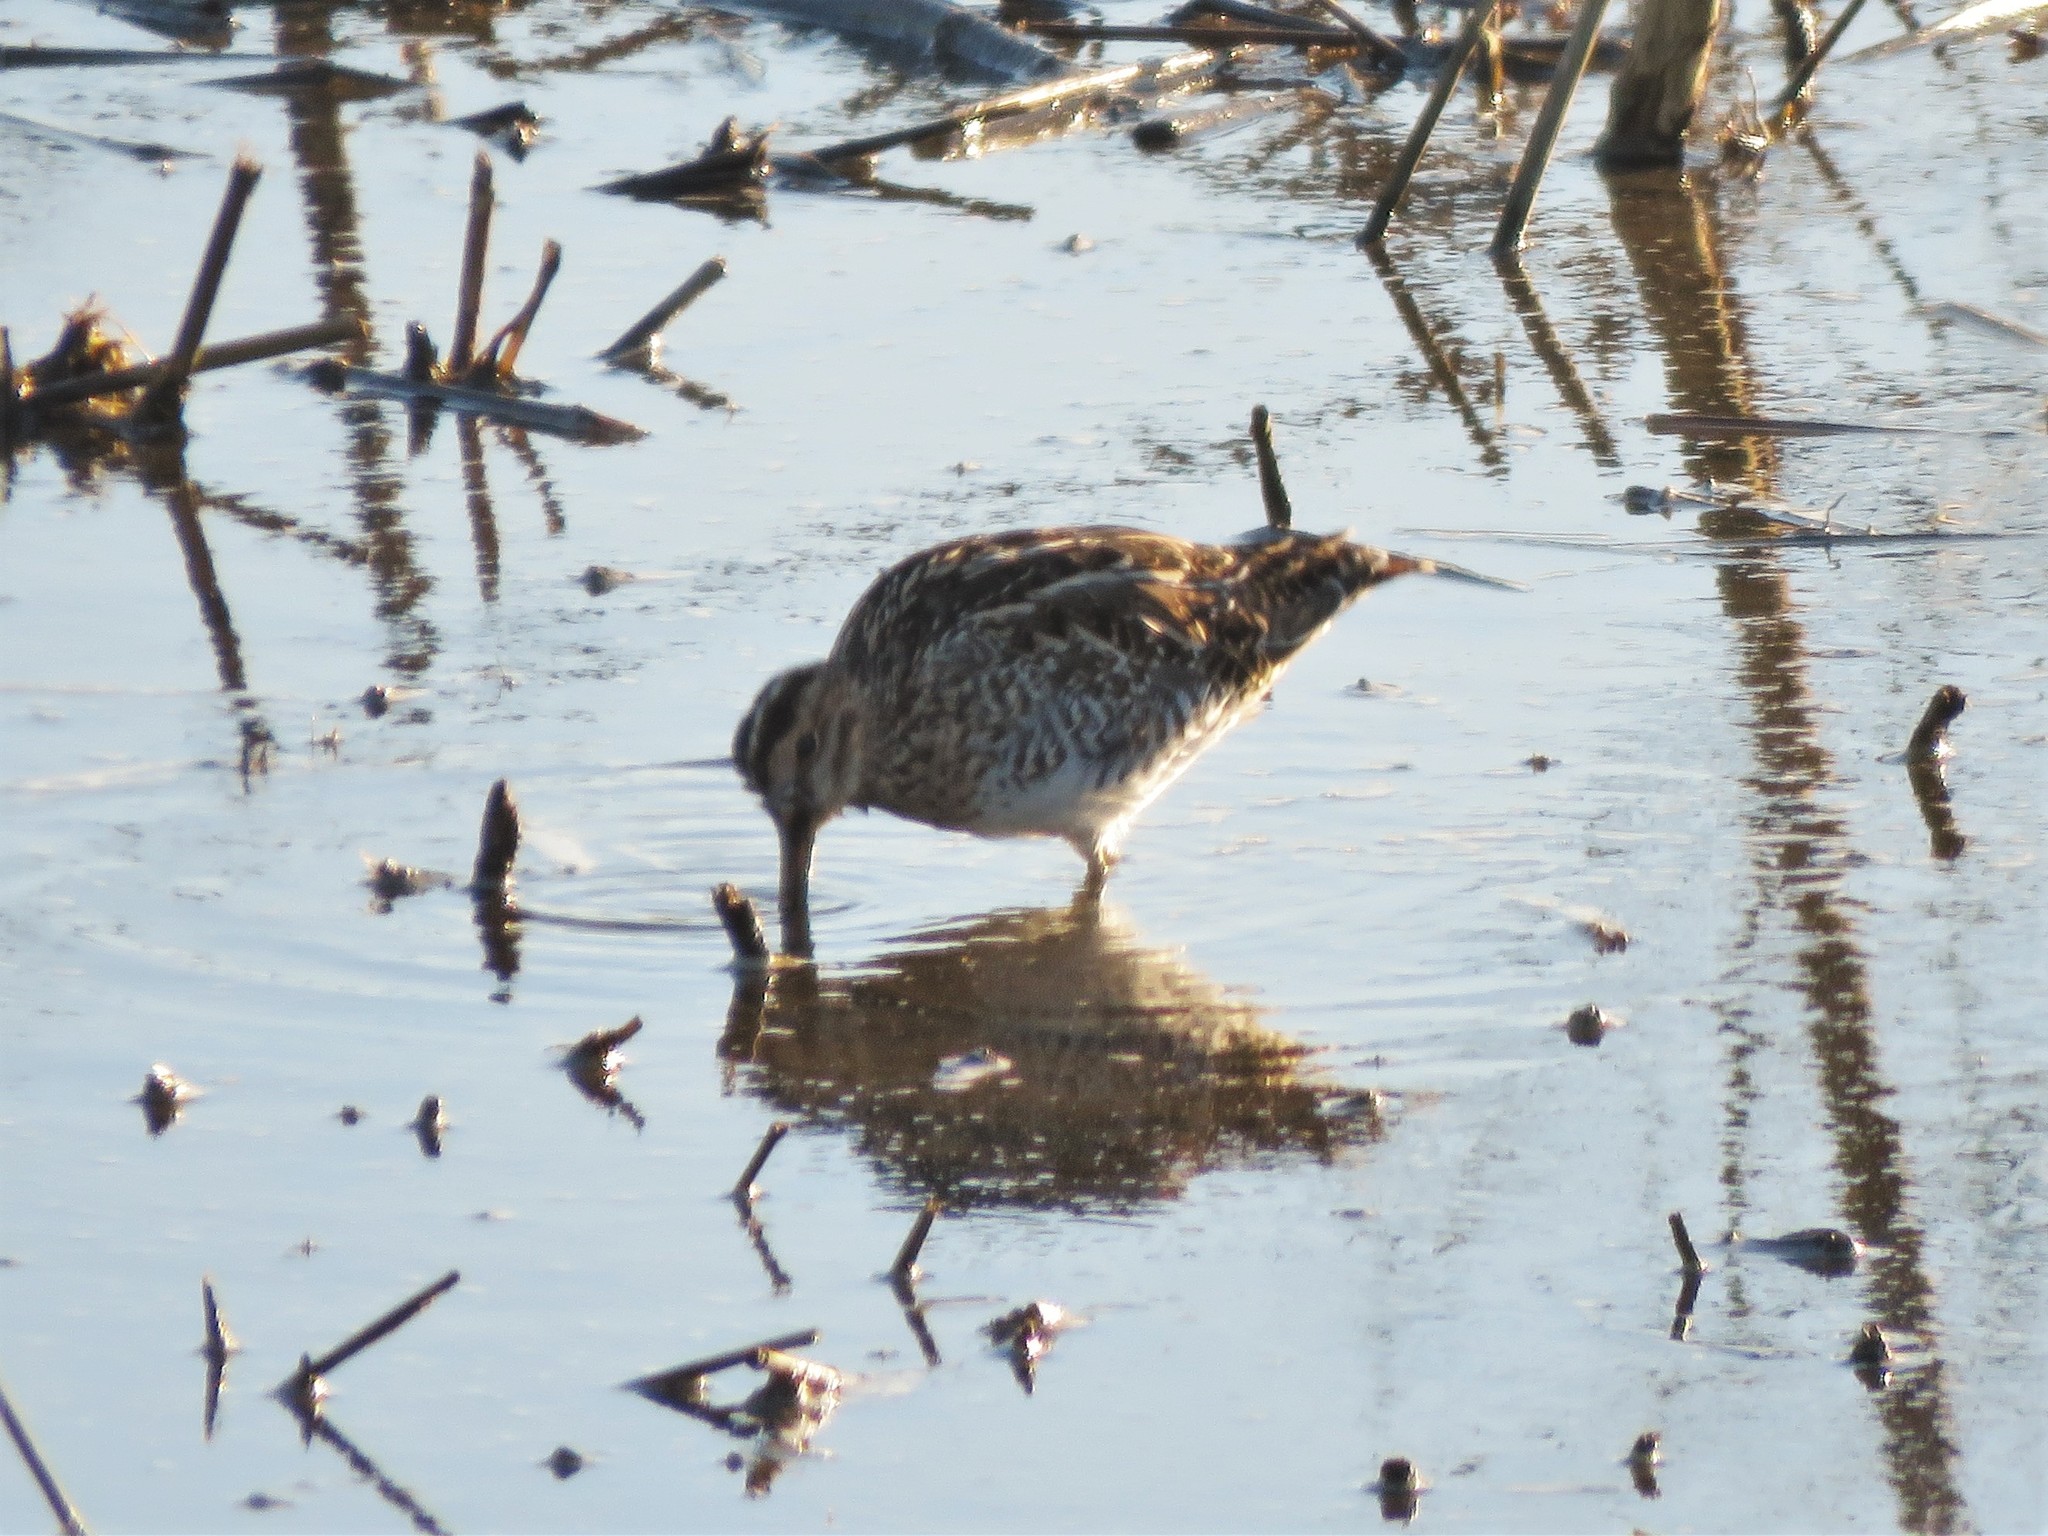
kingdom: Animalia
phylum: Chordata
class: Aves
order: Charadriiformes
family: Scolopacidae
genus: Gallinago
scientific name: Gallinago delicata
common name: Wilson's snipe
